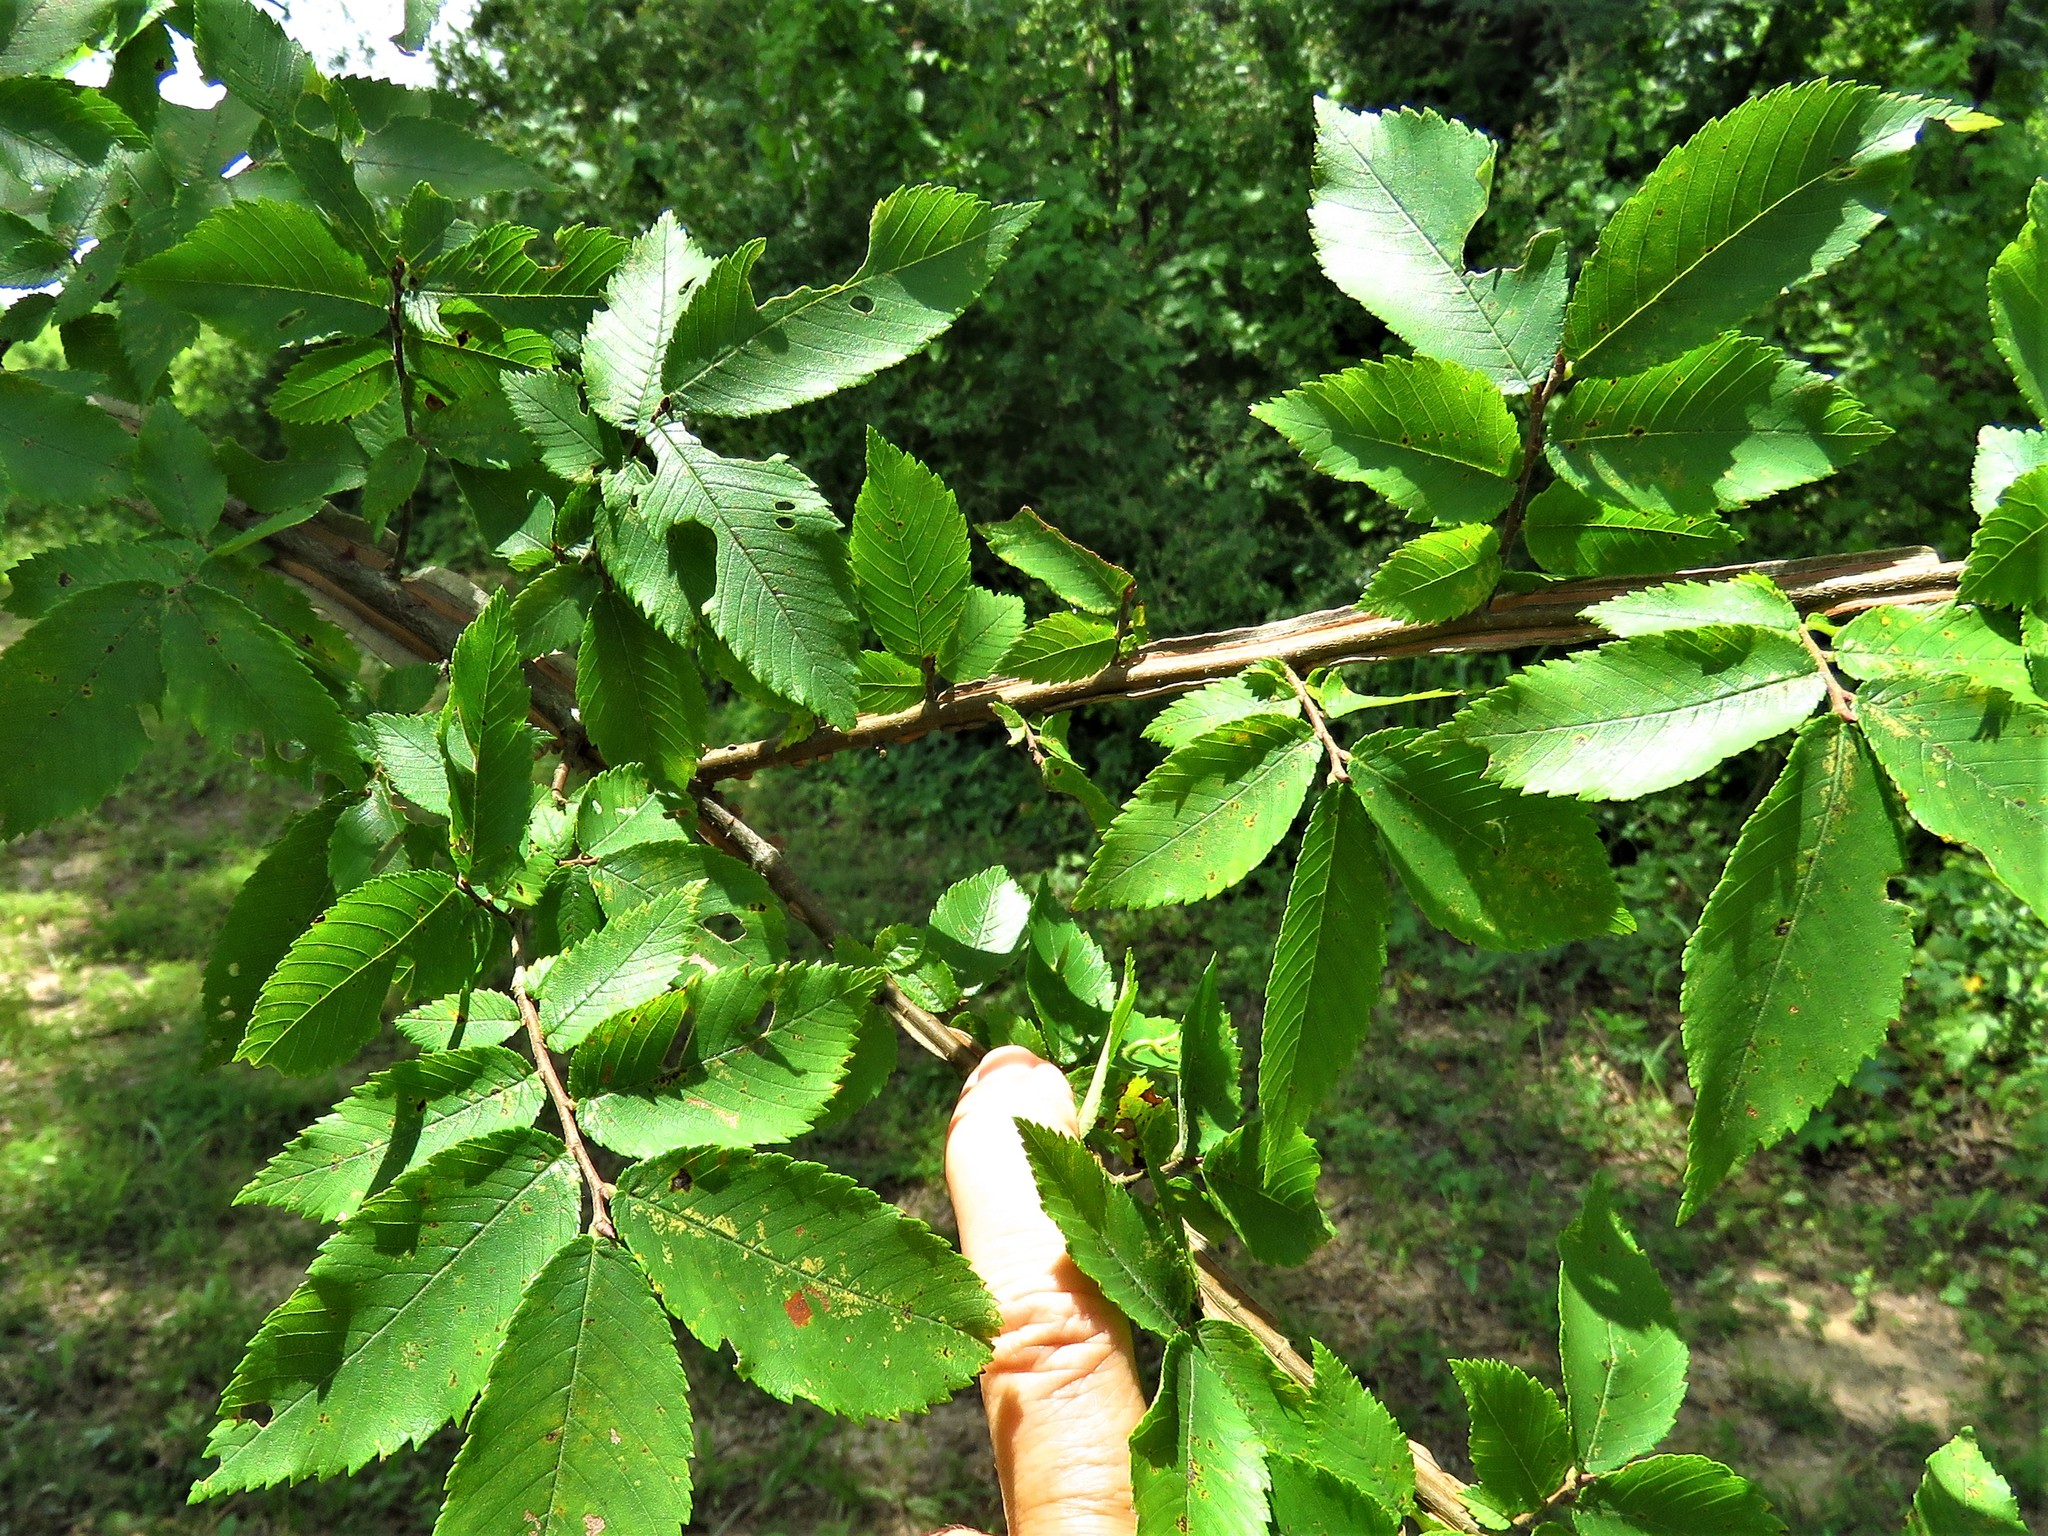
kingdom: Plantae
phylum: Tracheophyta
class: Magnoliopsida
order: Rosales
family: Ulmaceae
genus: Ulmus
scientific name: Ulmus alata
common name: Winged elm
